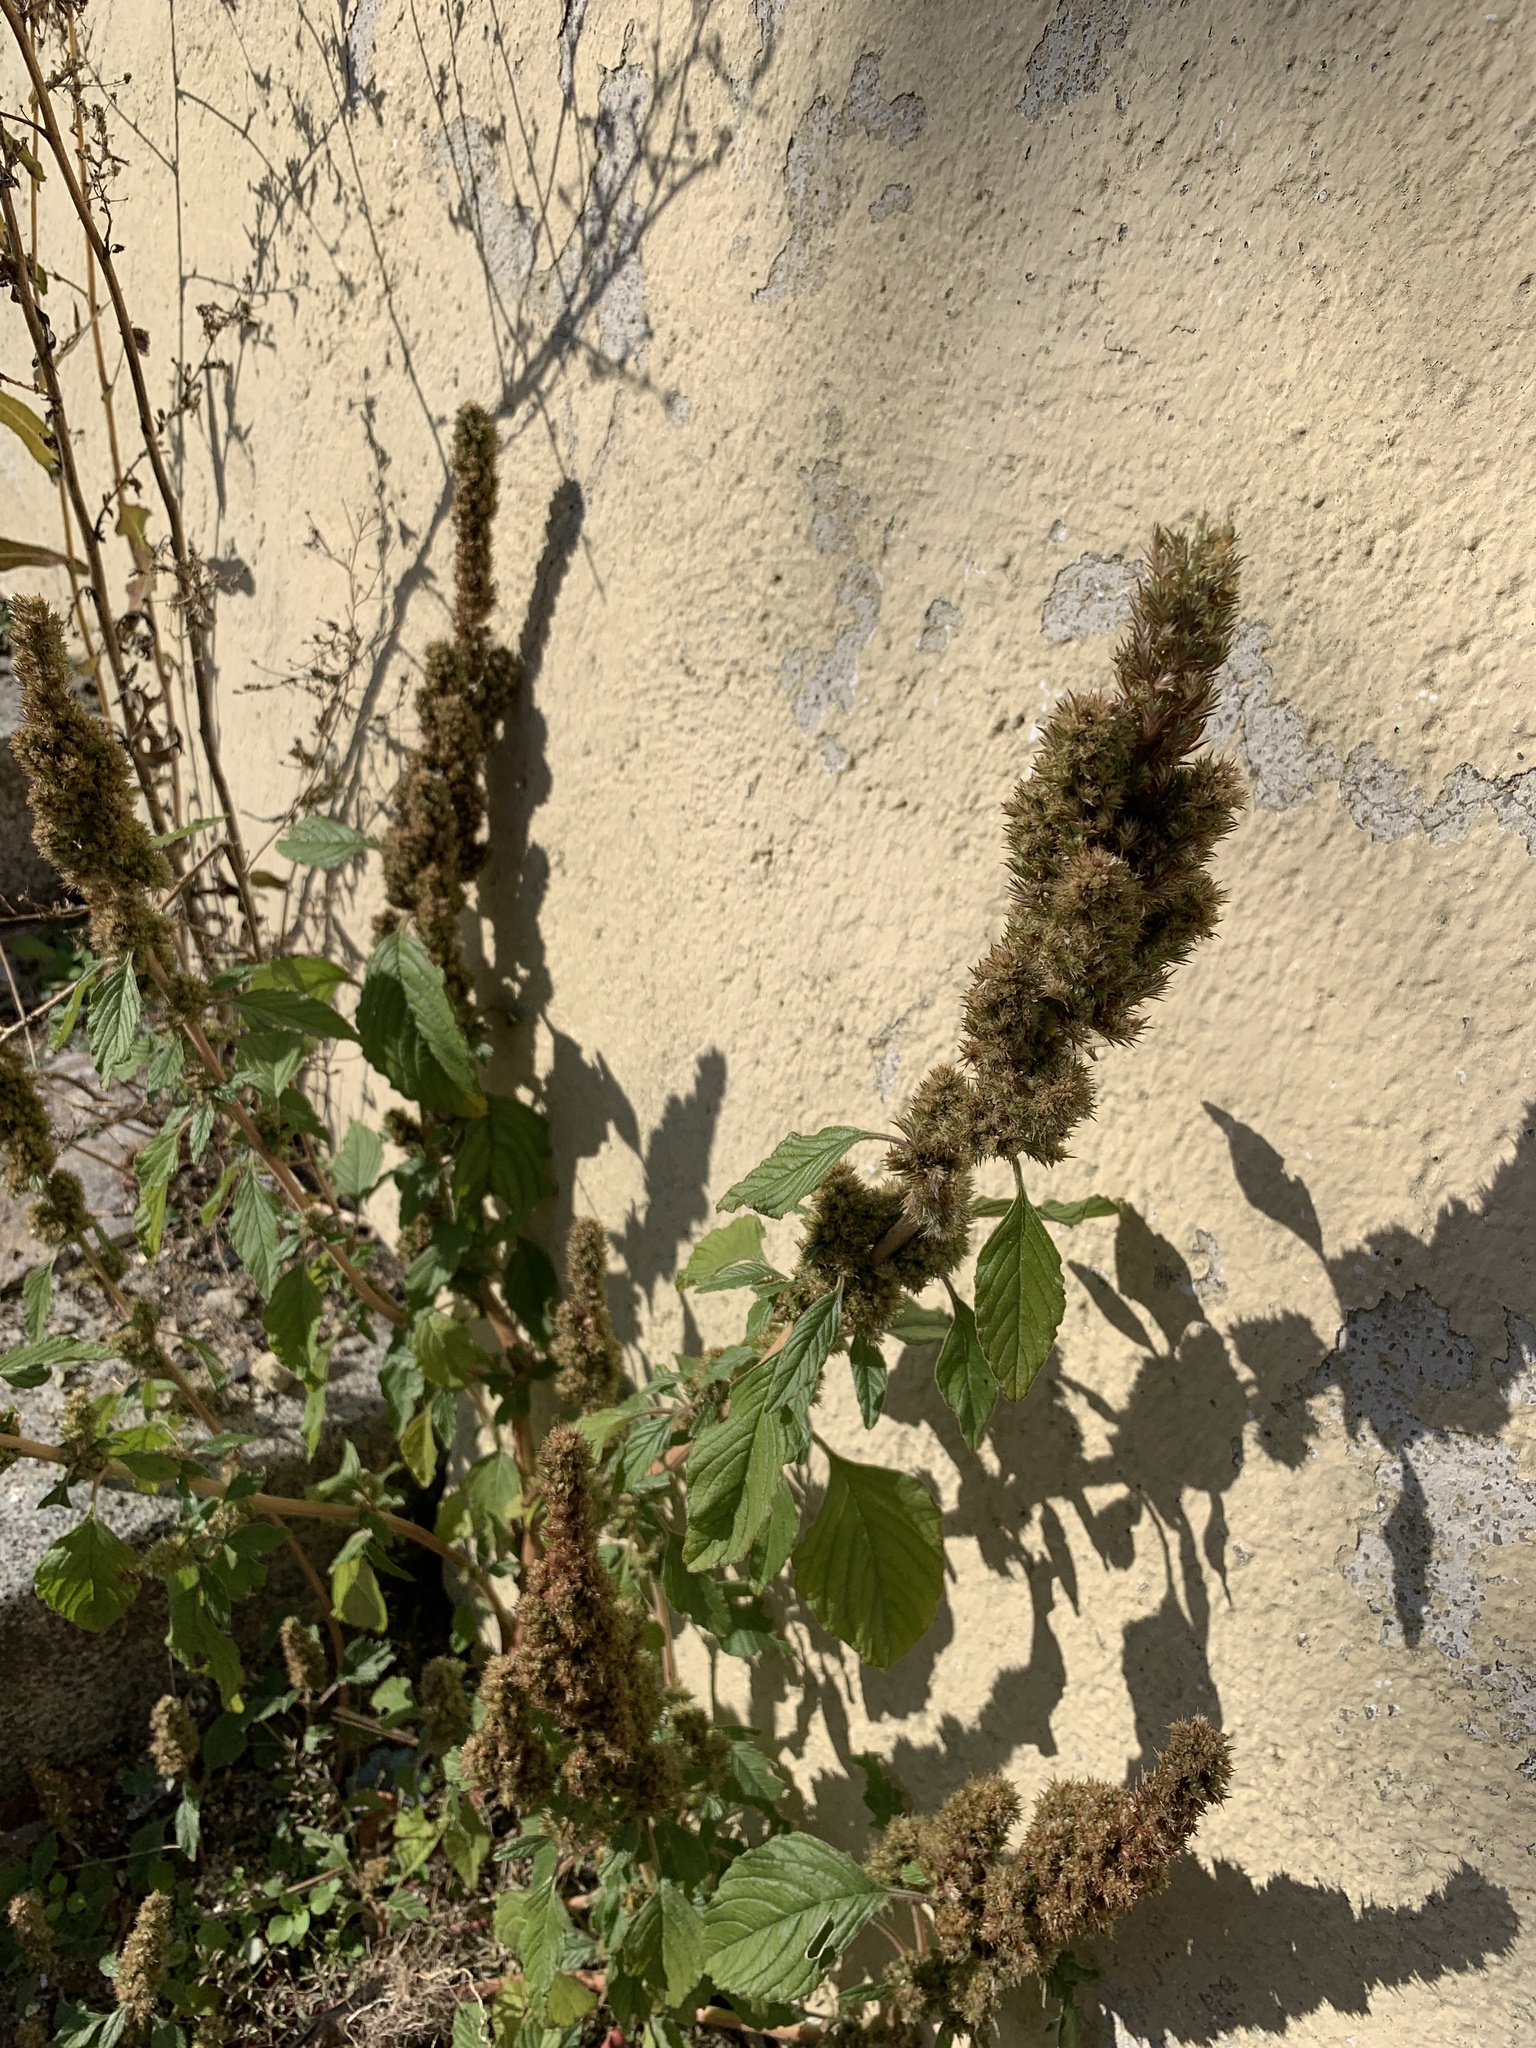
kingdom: Plantae
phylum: Tracheophyta
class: Magnoliopsida
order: Caryophyllales
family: Amaranthaceae
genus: Amaranthus
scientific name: Amaranthus retroflexus
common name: Redroot amaranth
